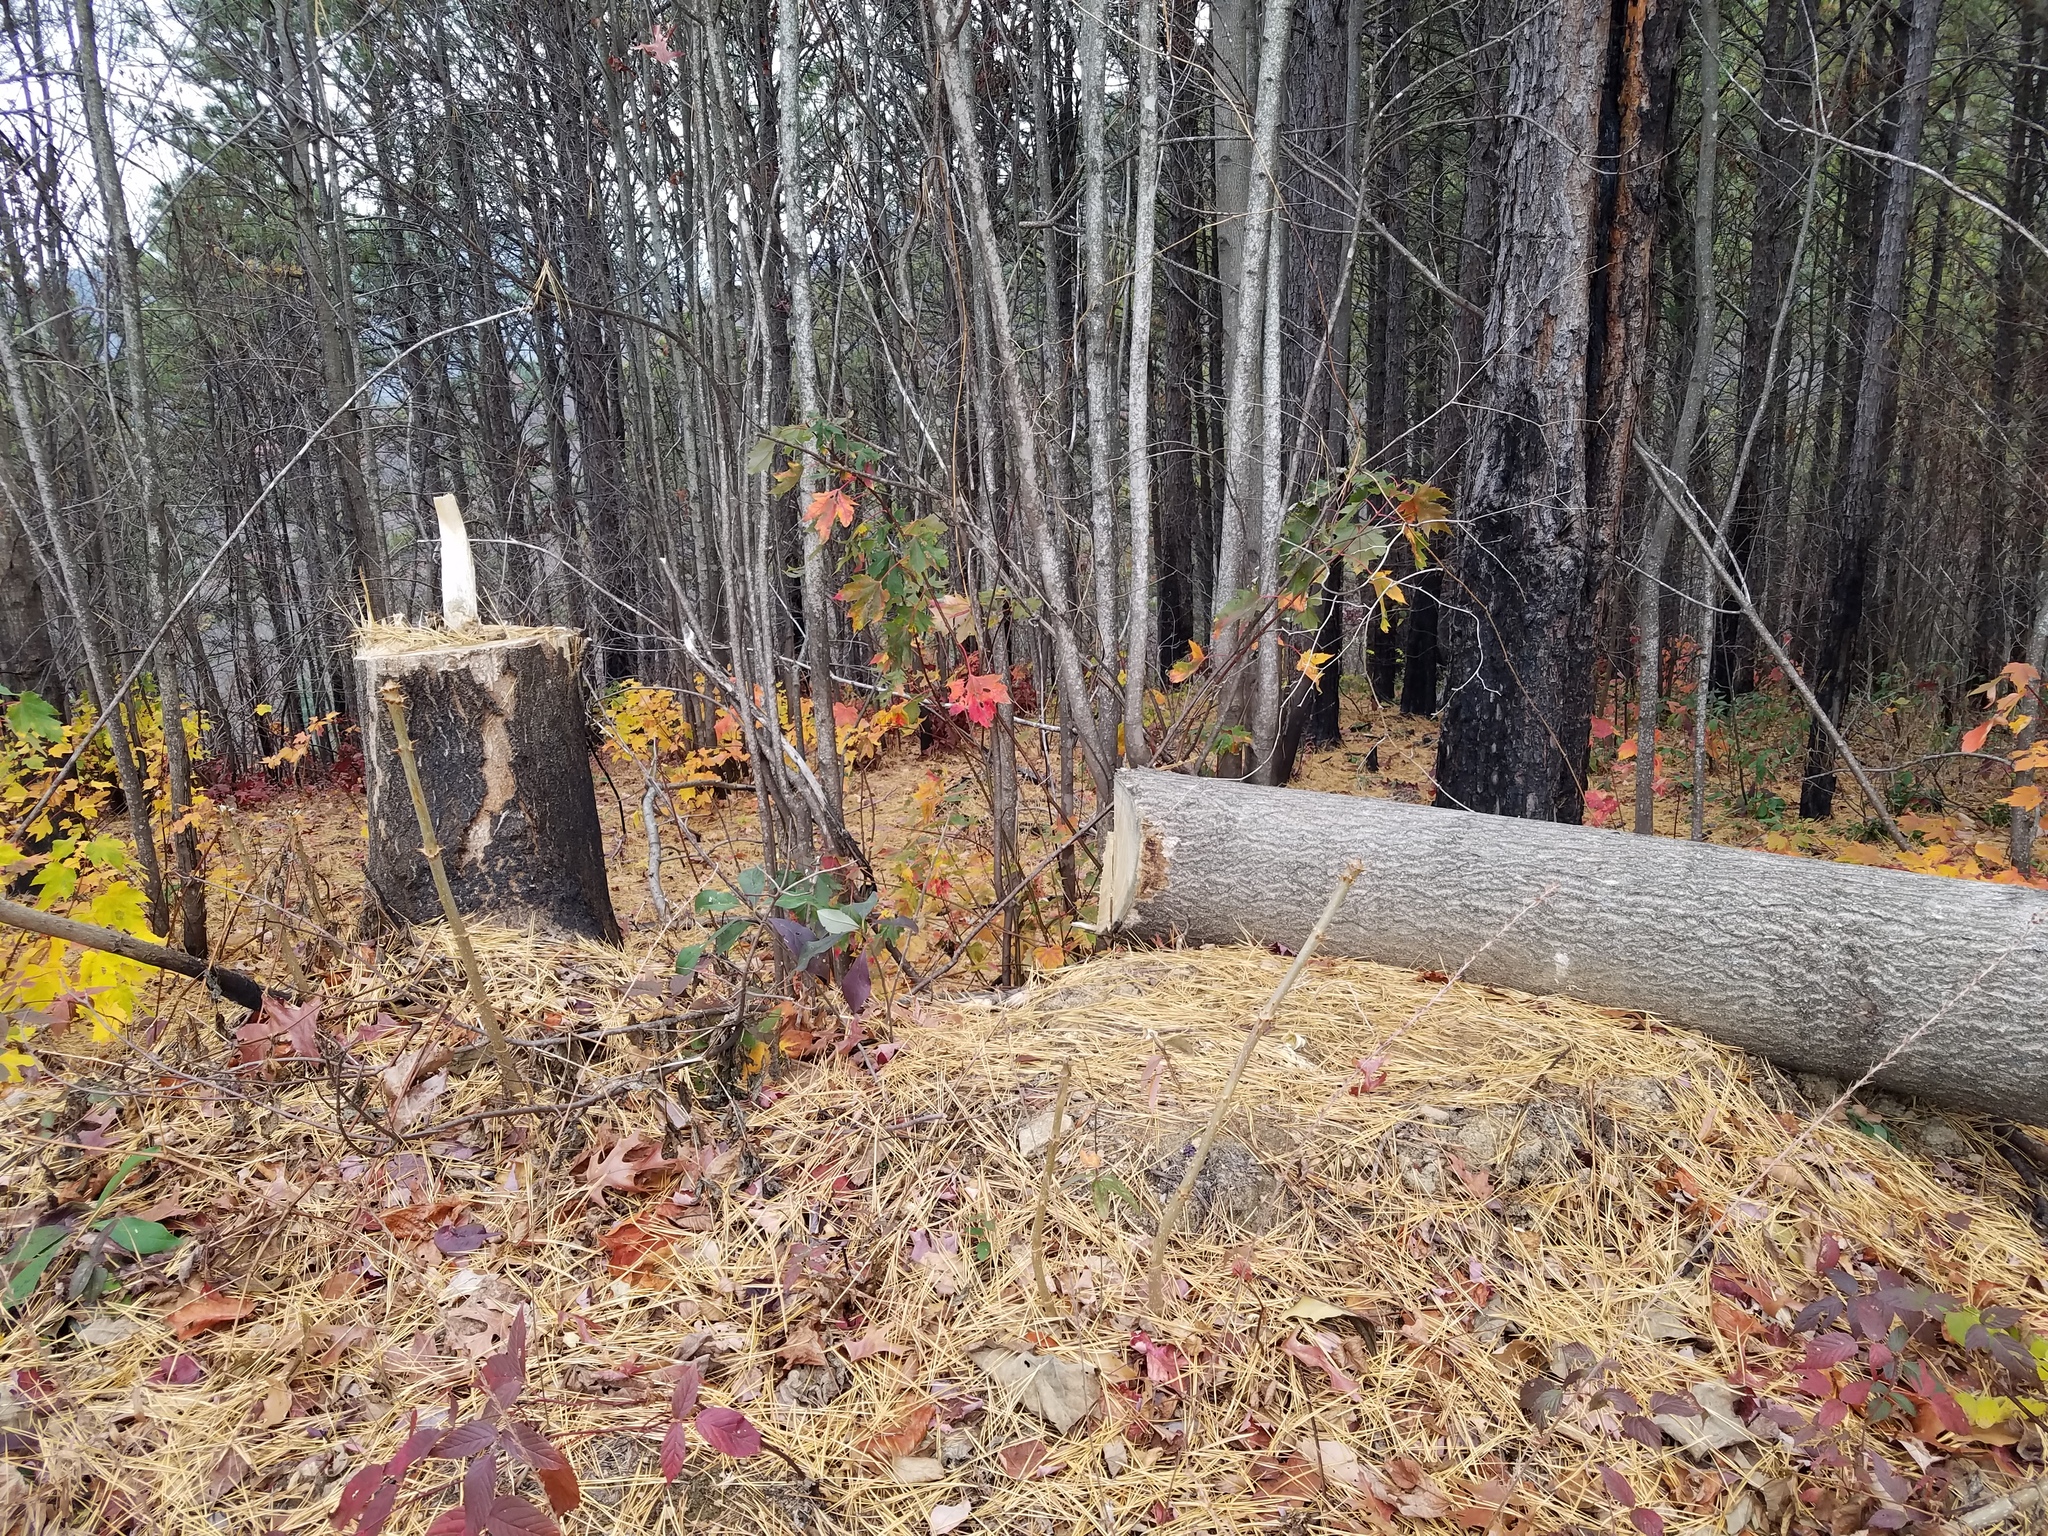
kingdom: Plantae
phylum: Tracheophyta
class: Magnoliopsida
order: Lamiales
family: Paulowniaceae
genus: Paulownia
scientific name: Paulownia tomentosa
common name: Foxglove-tree
